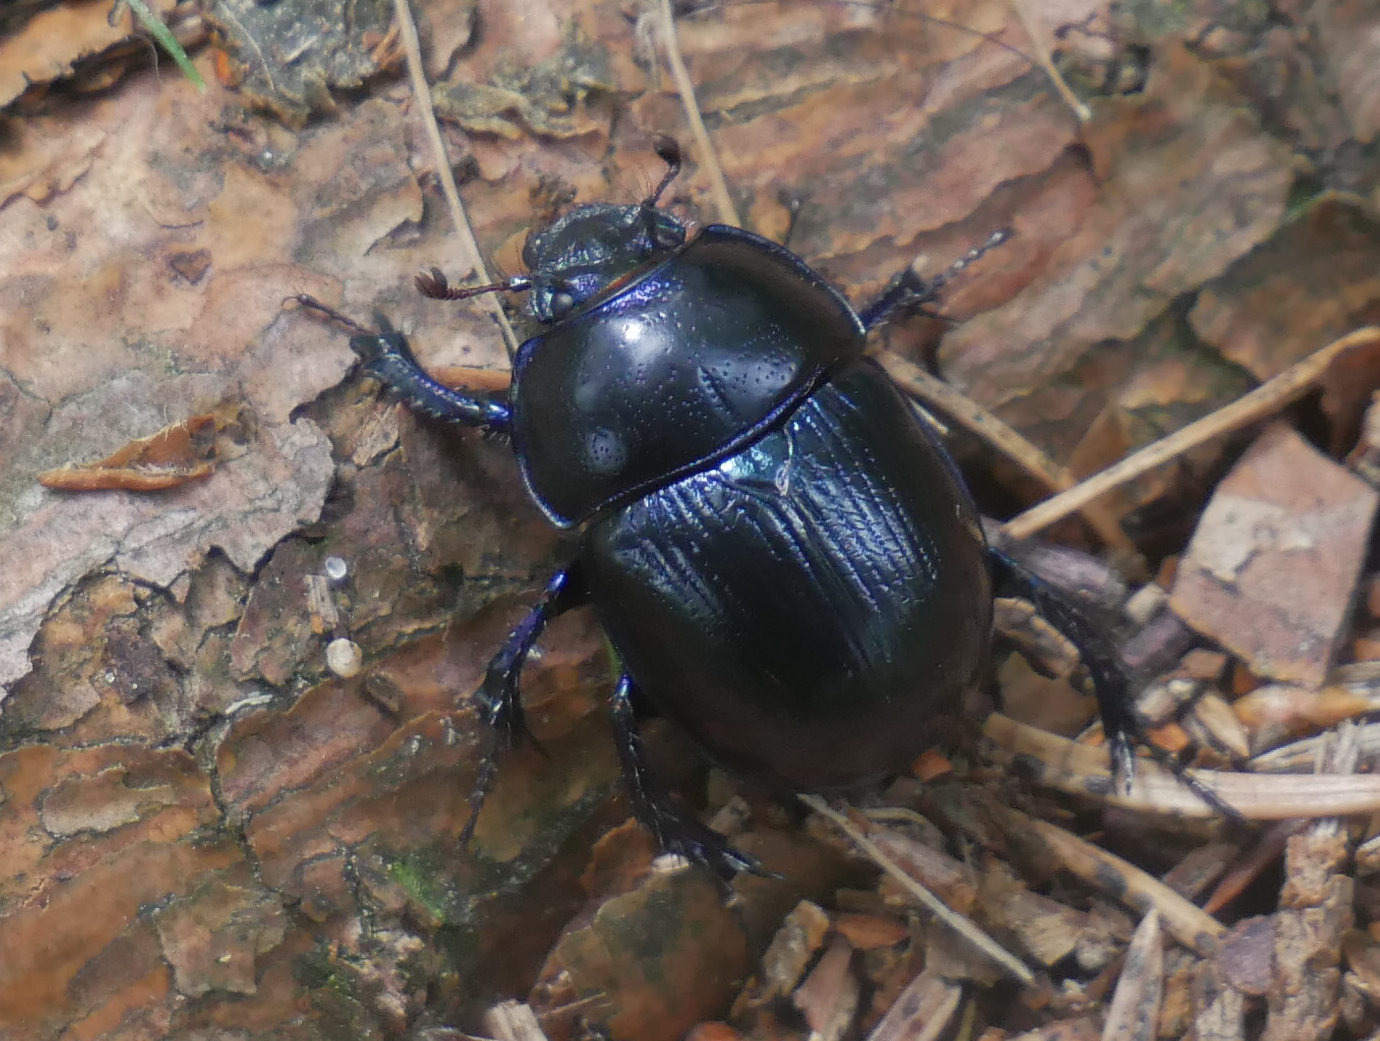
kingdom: Animalia
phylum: Arthropoda
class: Insecta
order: Coleoptera
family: Geotrupidae
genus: Anoplotrupes
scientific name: Anoplotrupes stercorosus
